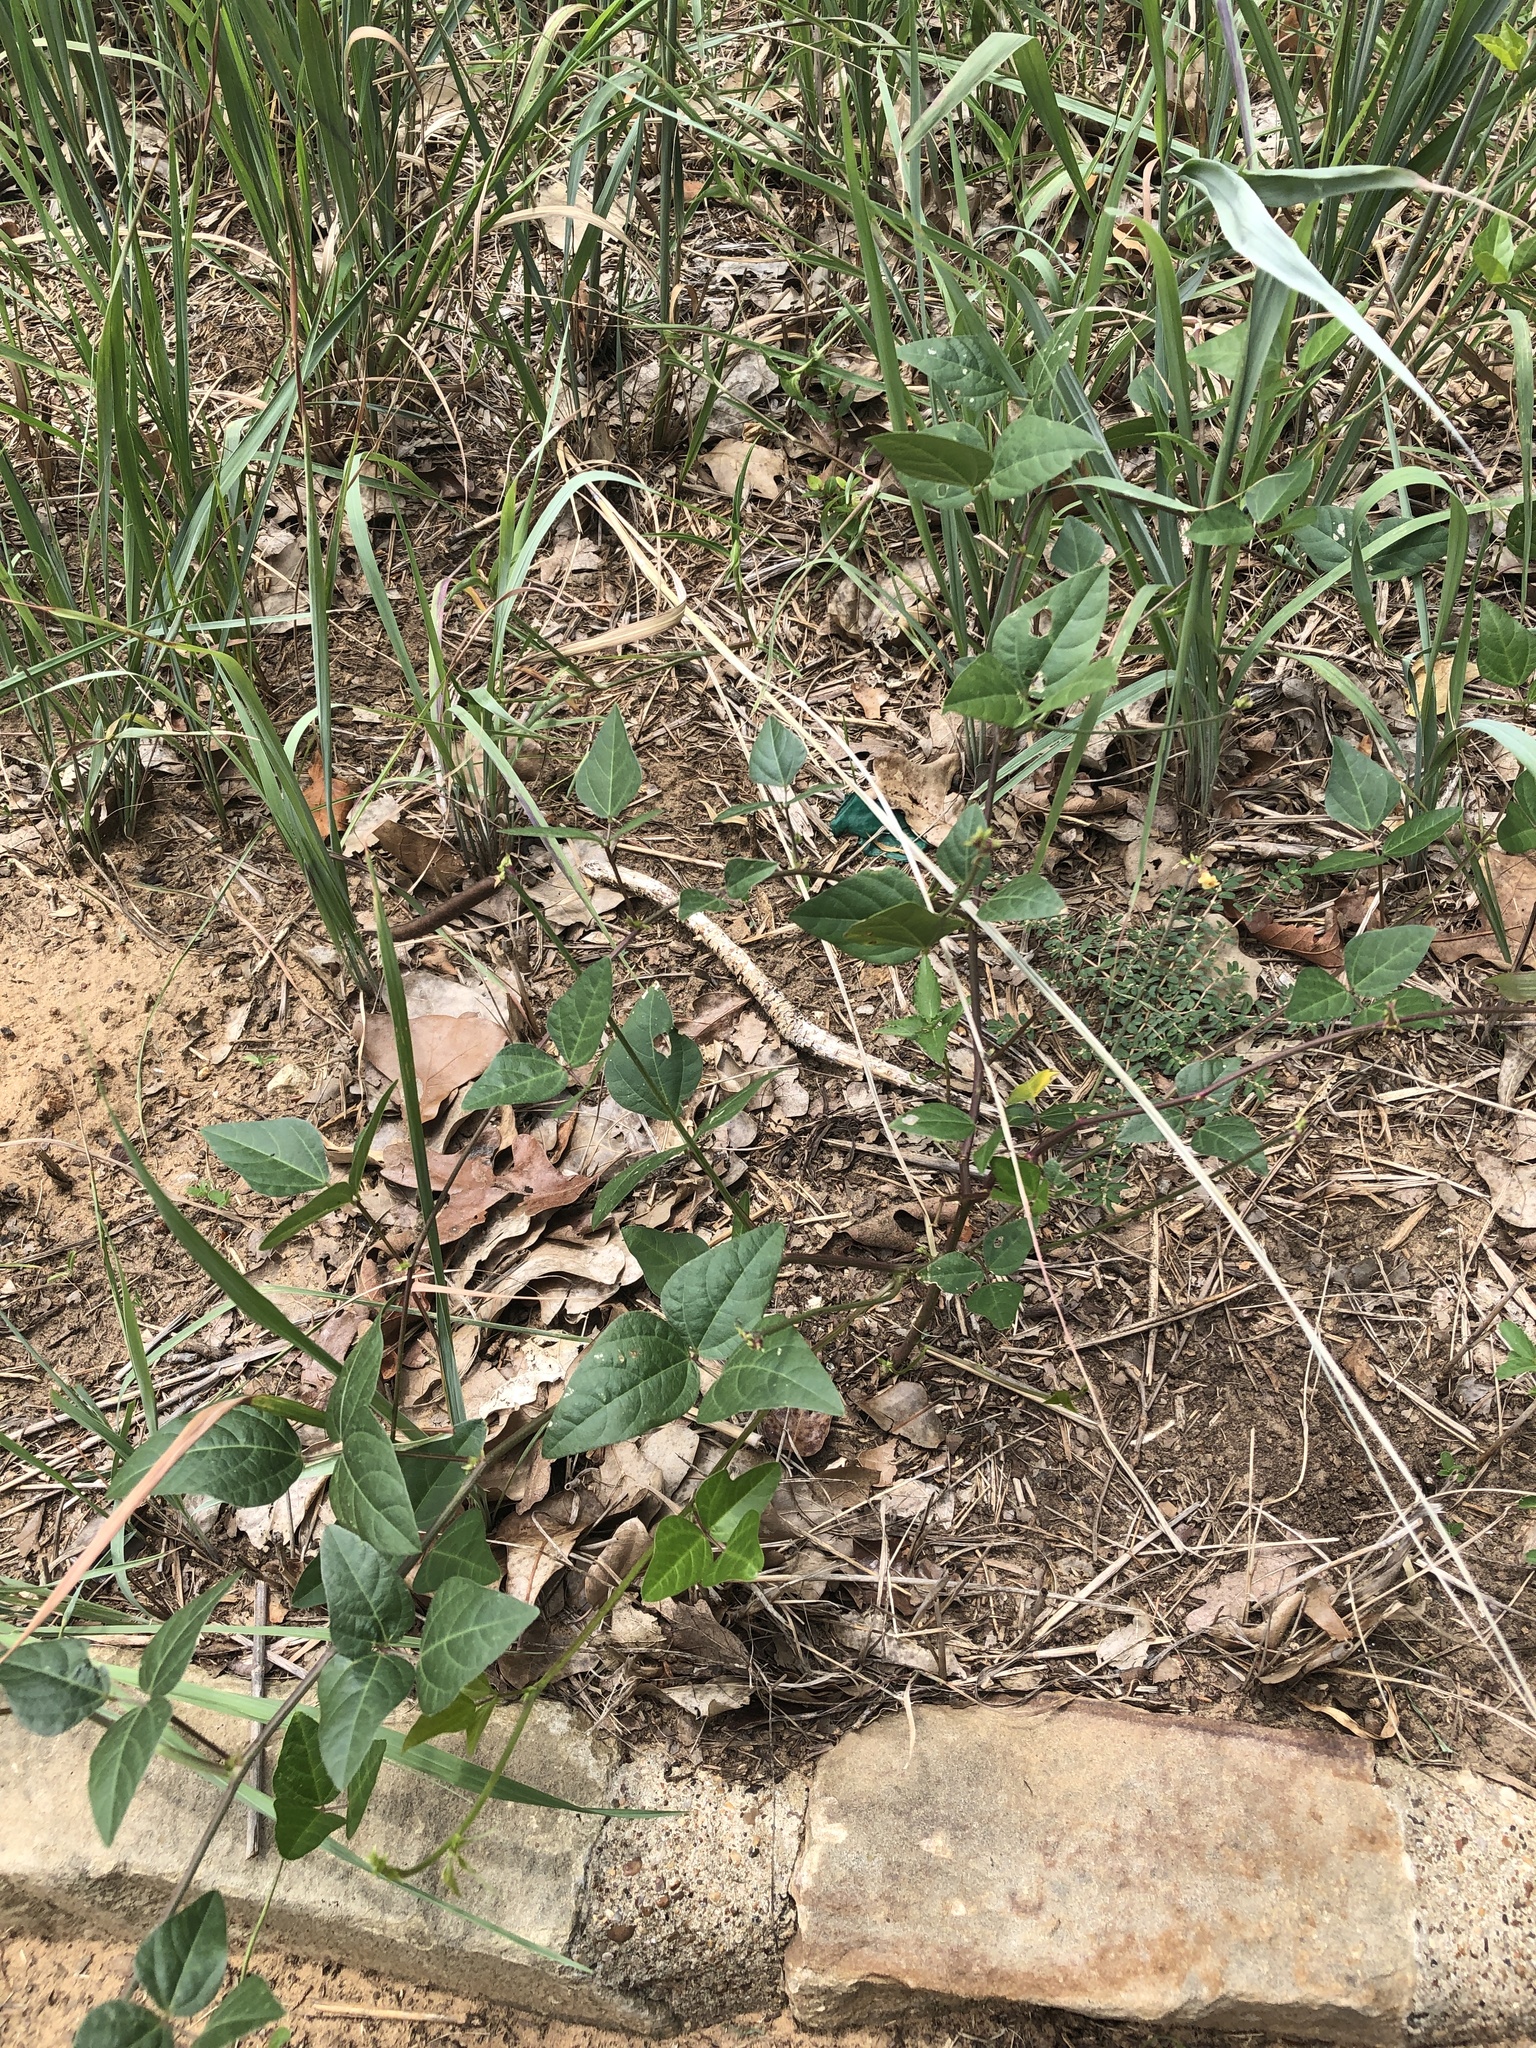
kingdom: Plantae
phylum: Tracheophyta
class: Magnoliopsida
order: Fabales
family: Fabaceae
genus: Strophostyles
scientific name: Strophostyles helvola
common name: Trailing wild bean
